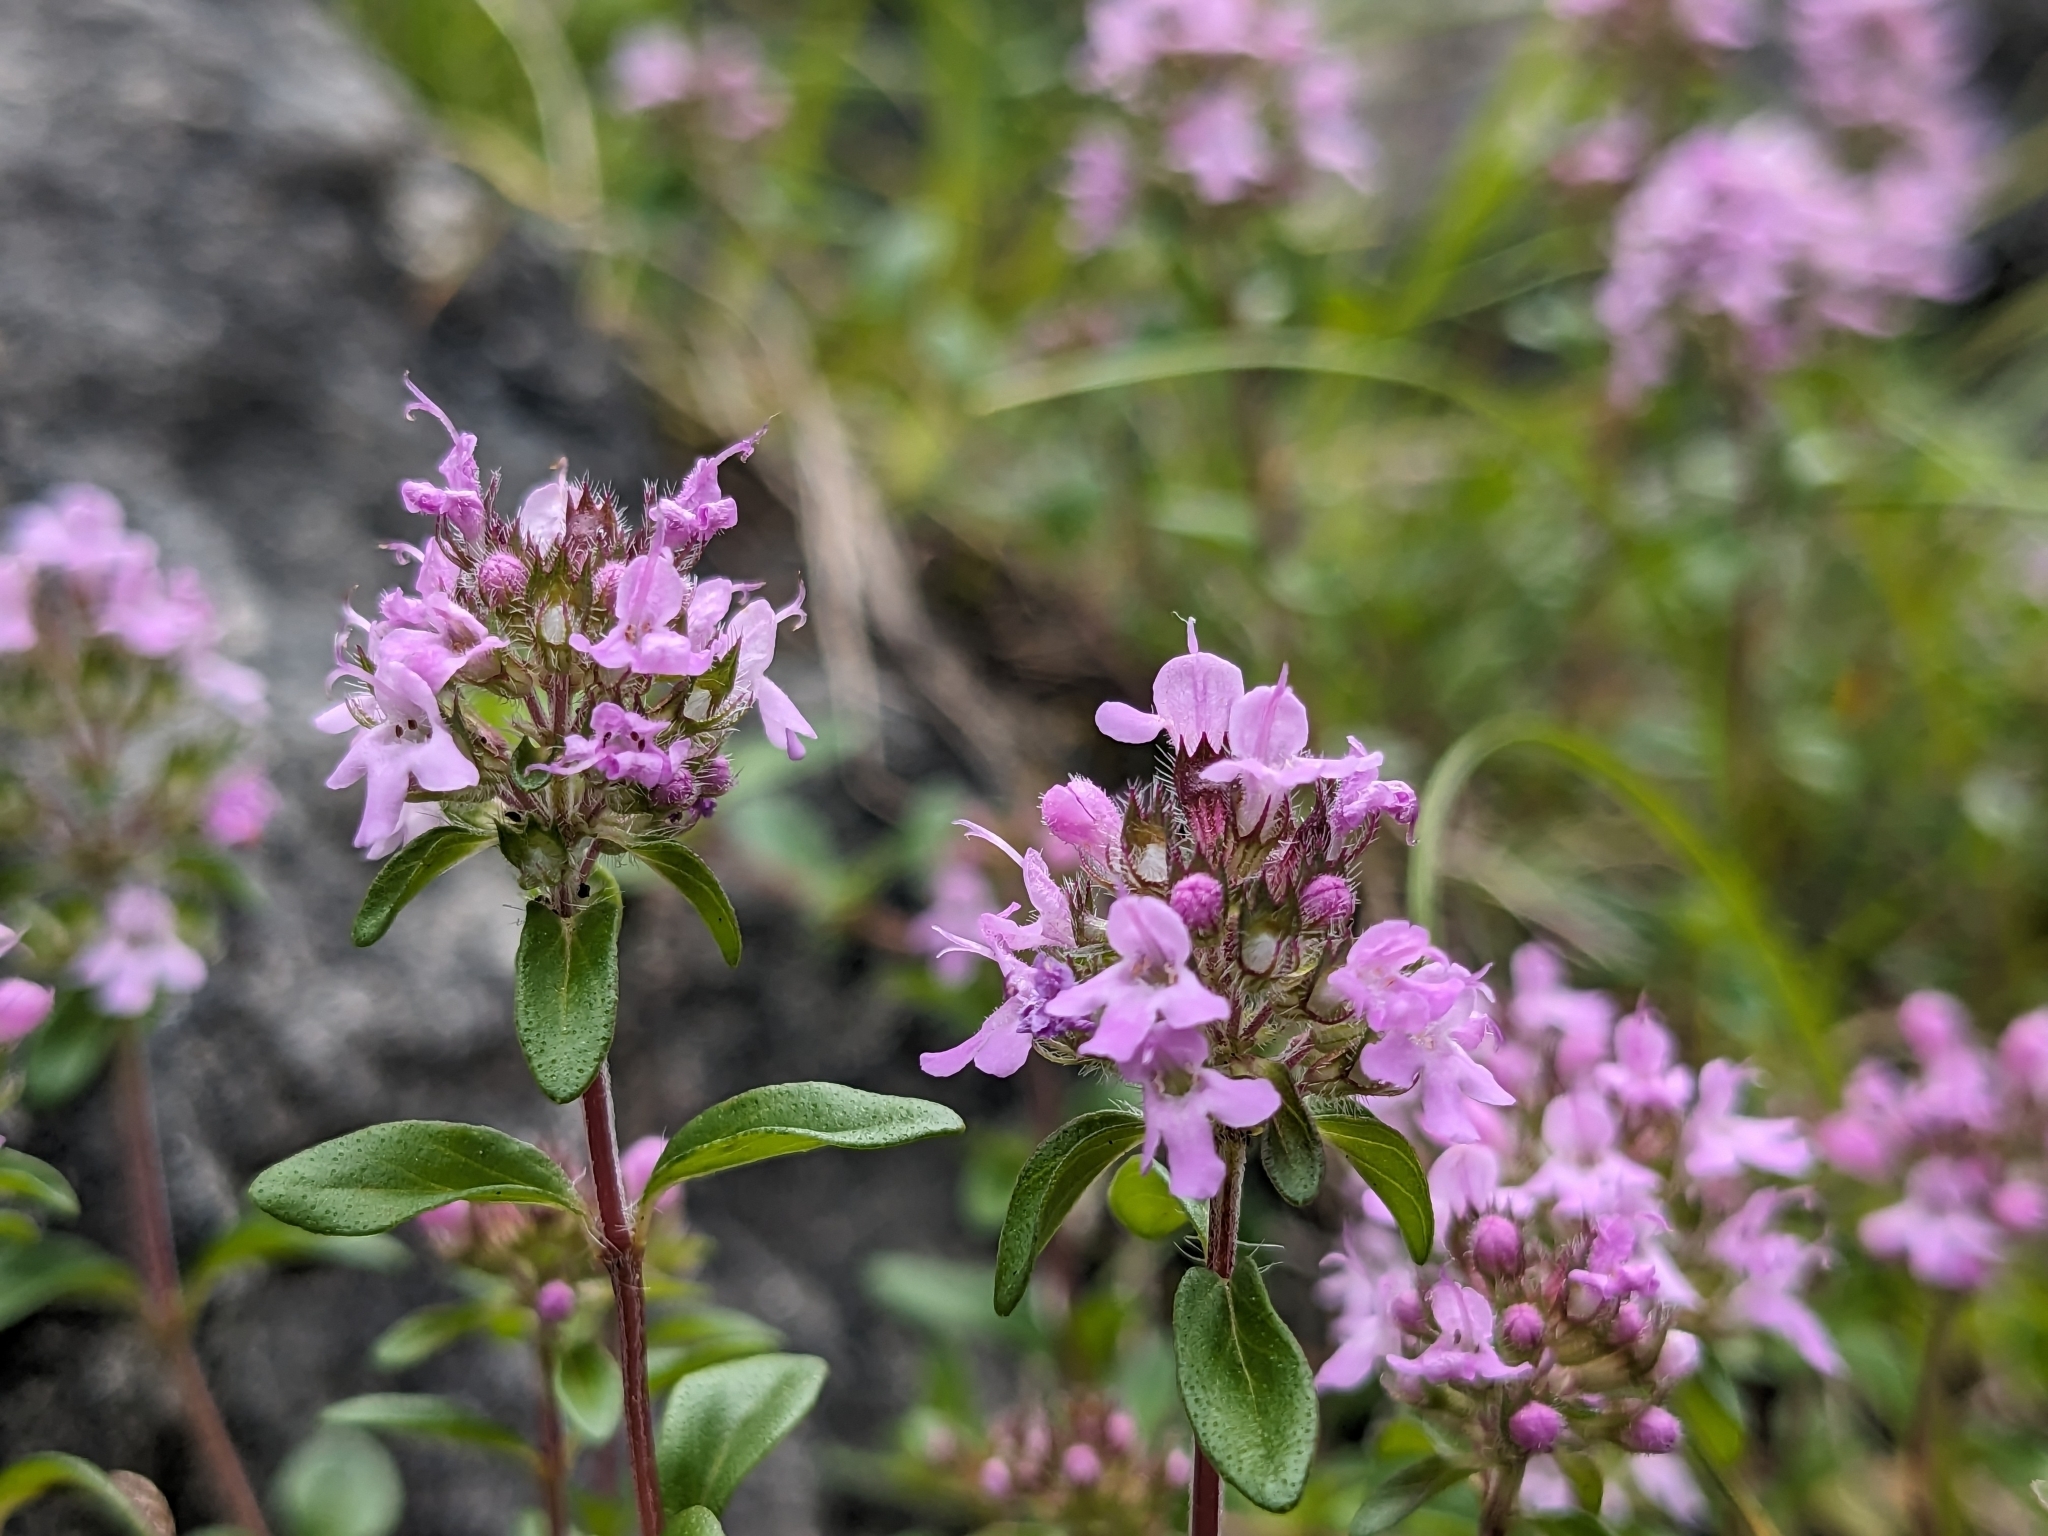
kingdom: Plantae
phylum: Tracheophyta
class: Magnoliopsida
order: Lamiales
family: Lamiaceae
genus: Thymus
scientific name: Thymus pulegioides
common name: Large thyme
